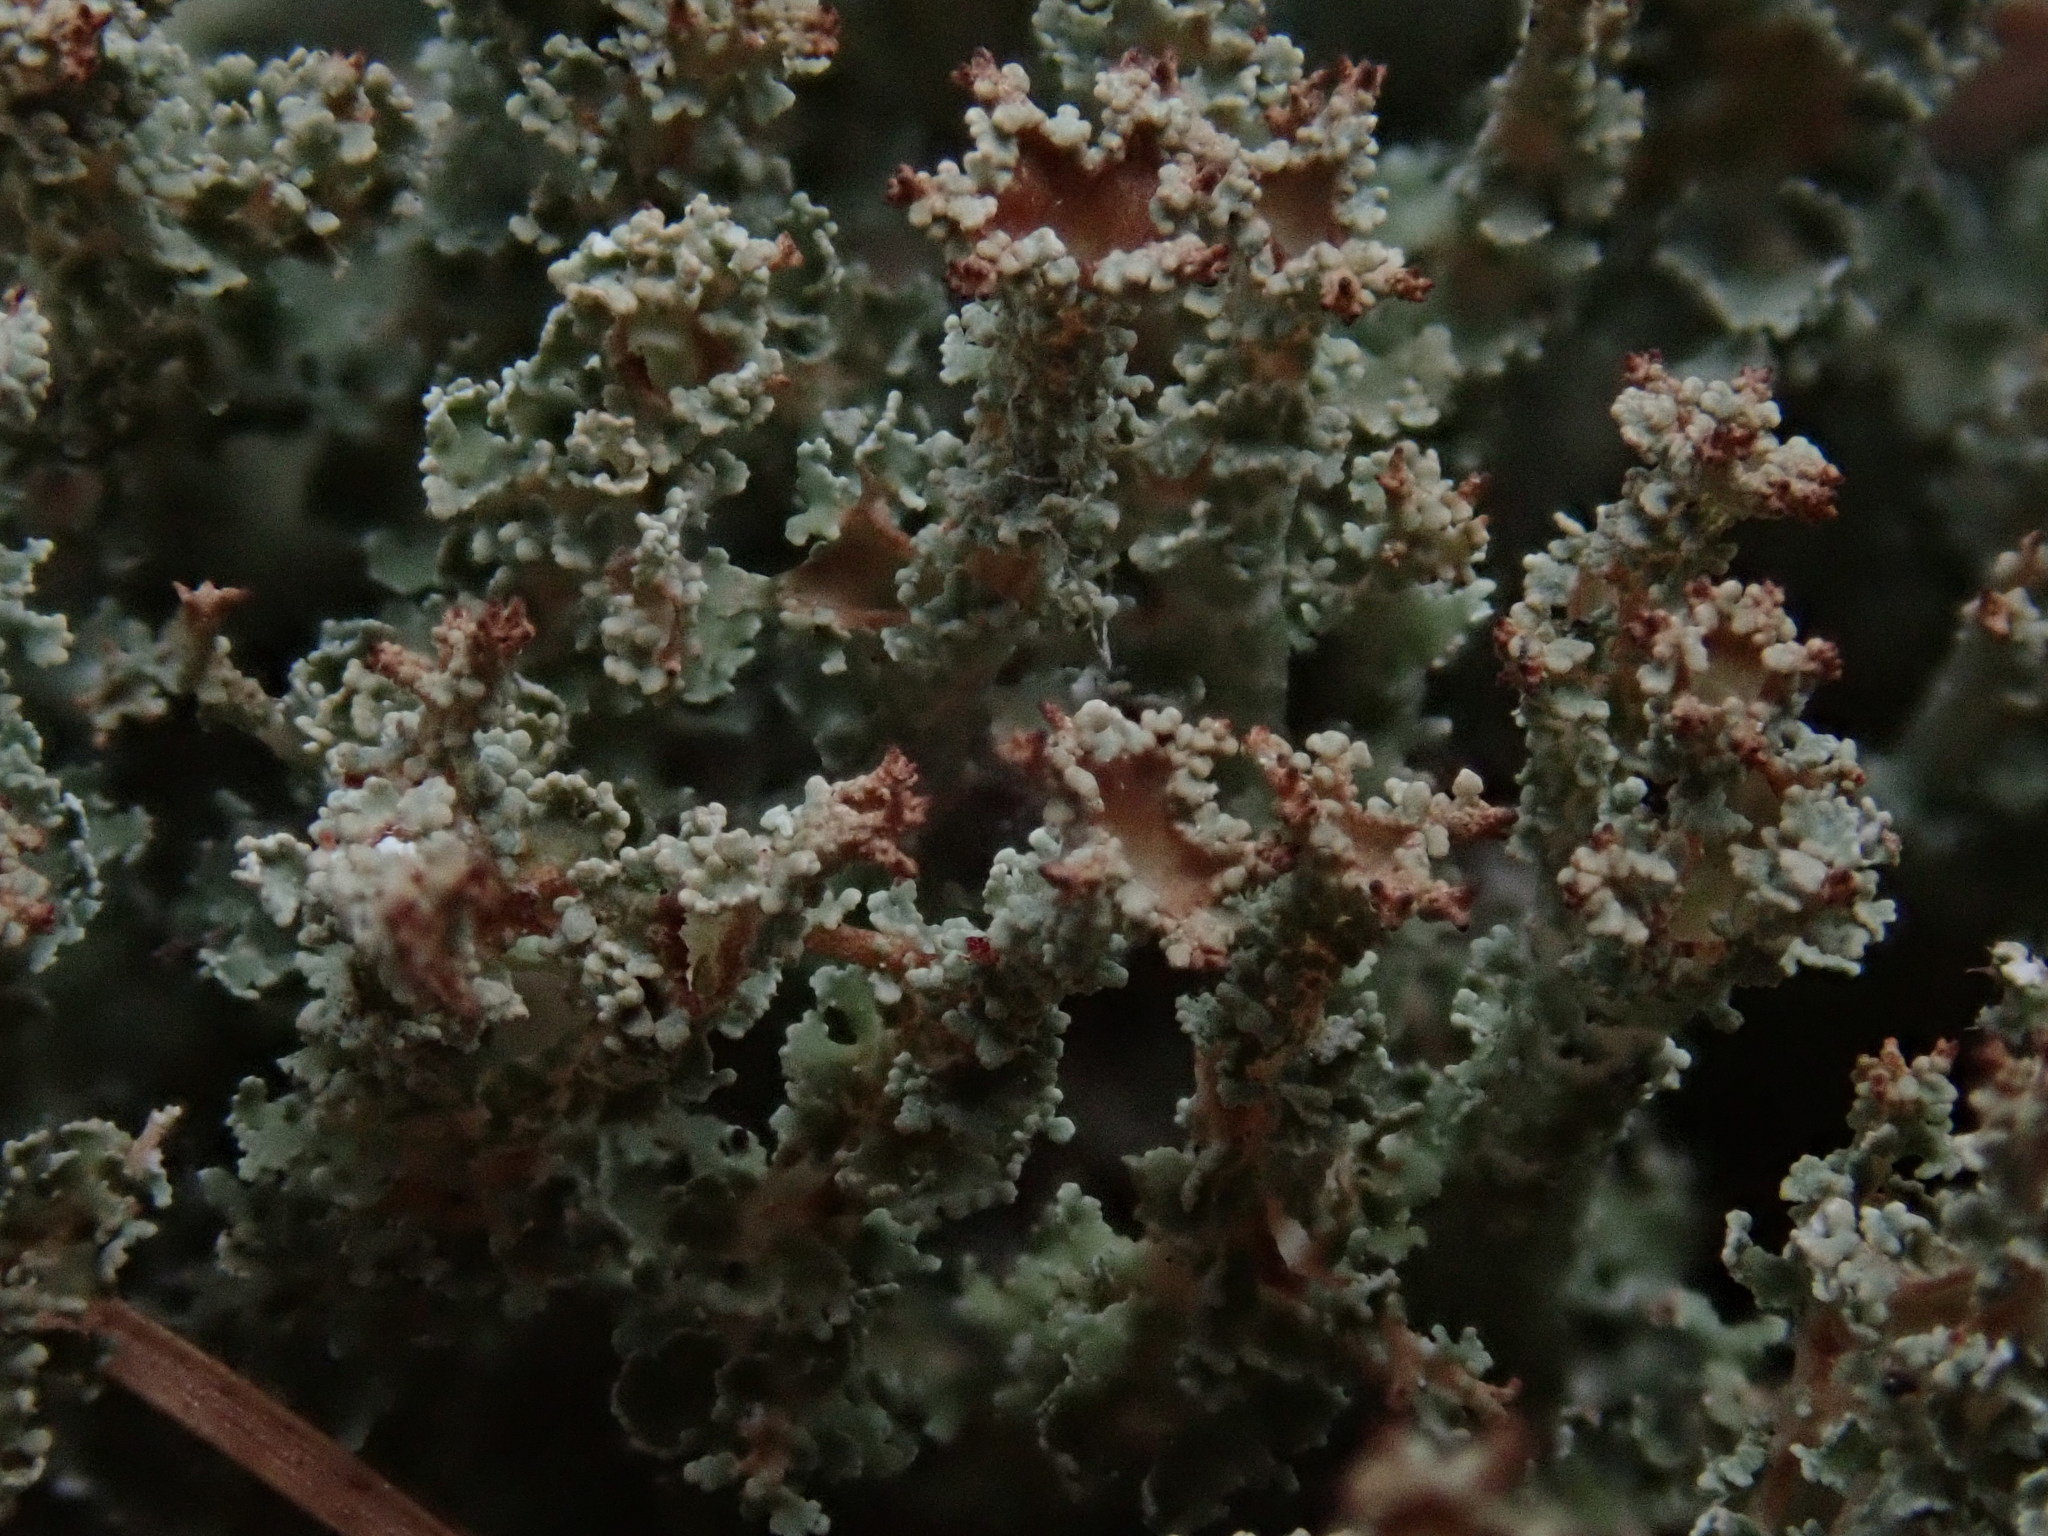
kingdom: Fungi
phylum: Ascomycota
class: Lecanoromycetes
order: Lecanorales
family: Cladoniaceae
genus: Cladonia
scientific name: Cladonia squamosa
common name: Dragon horn
